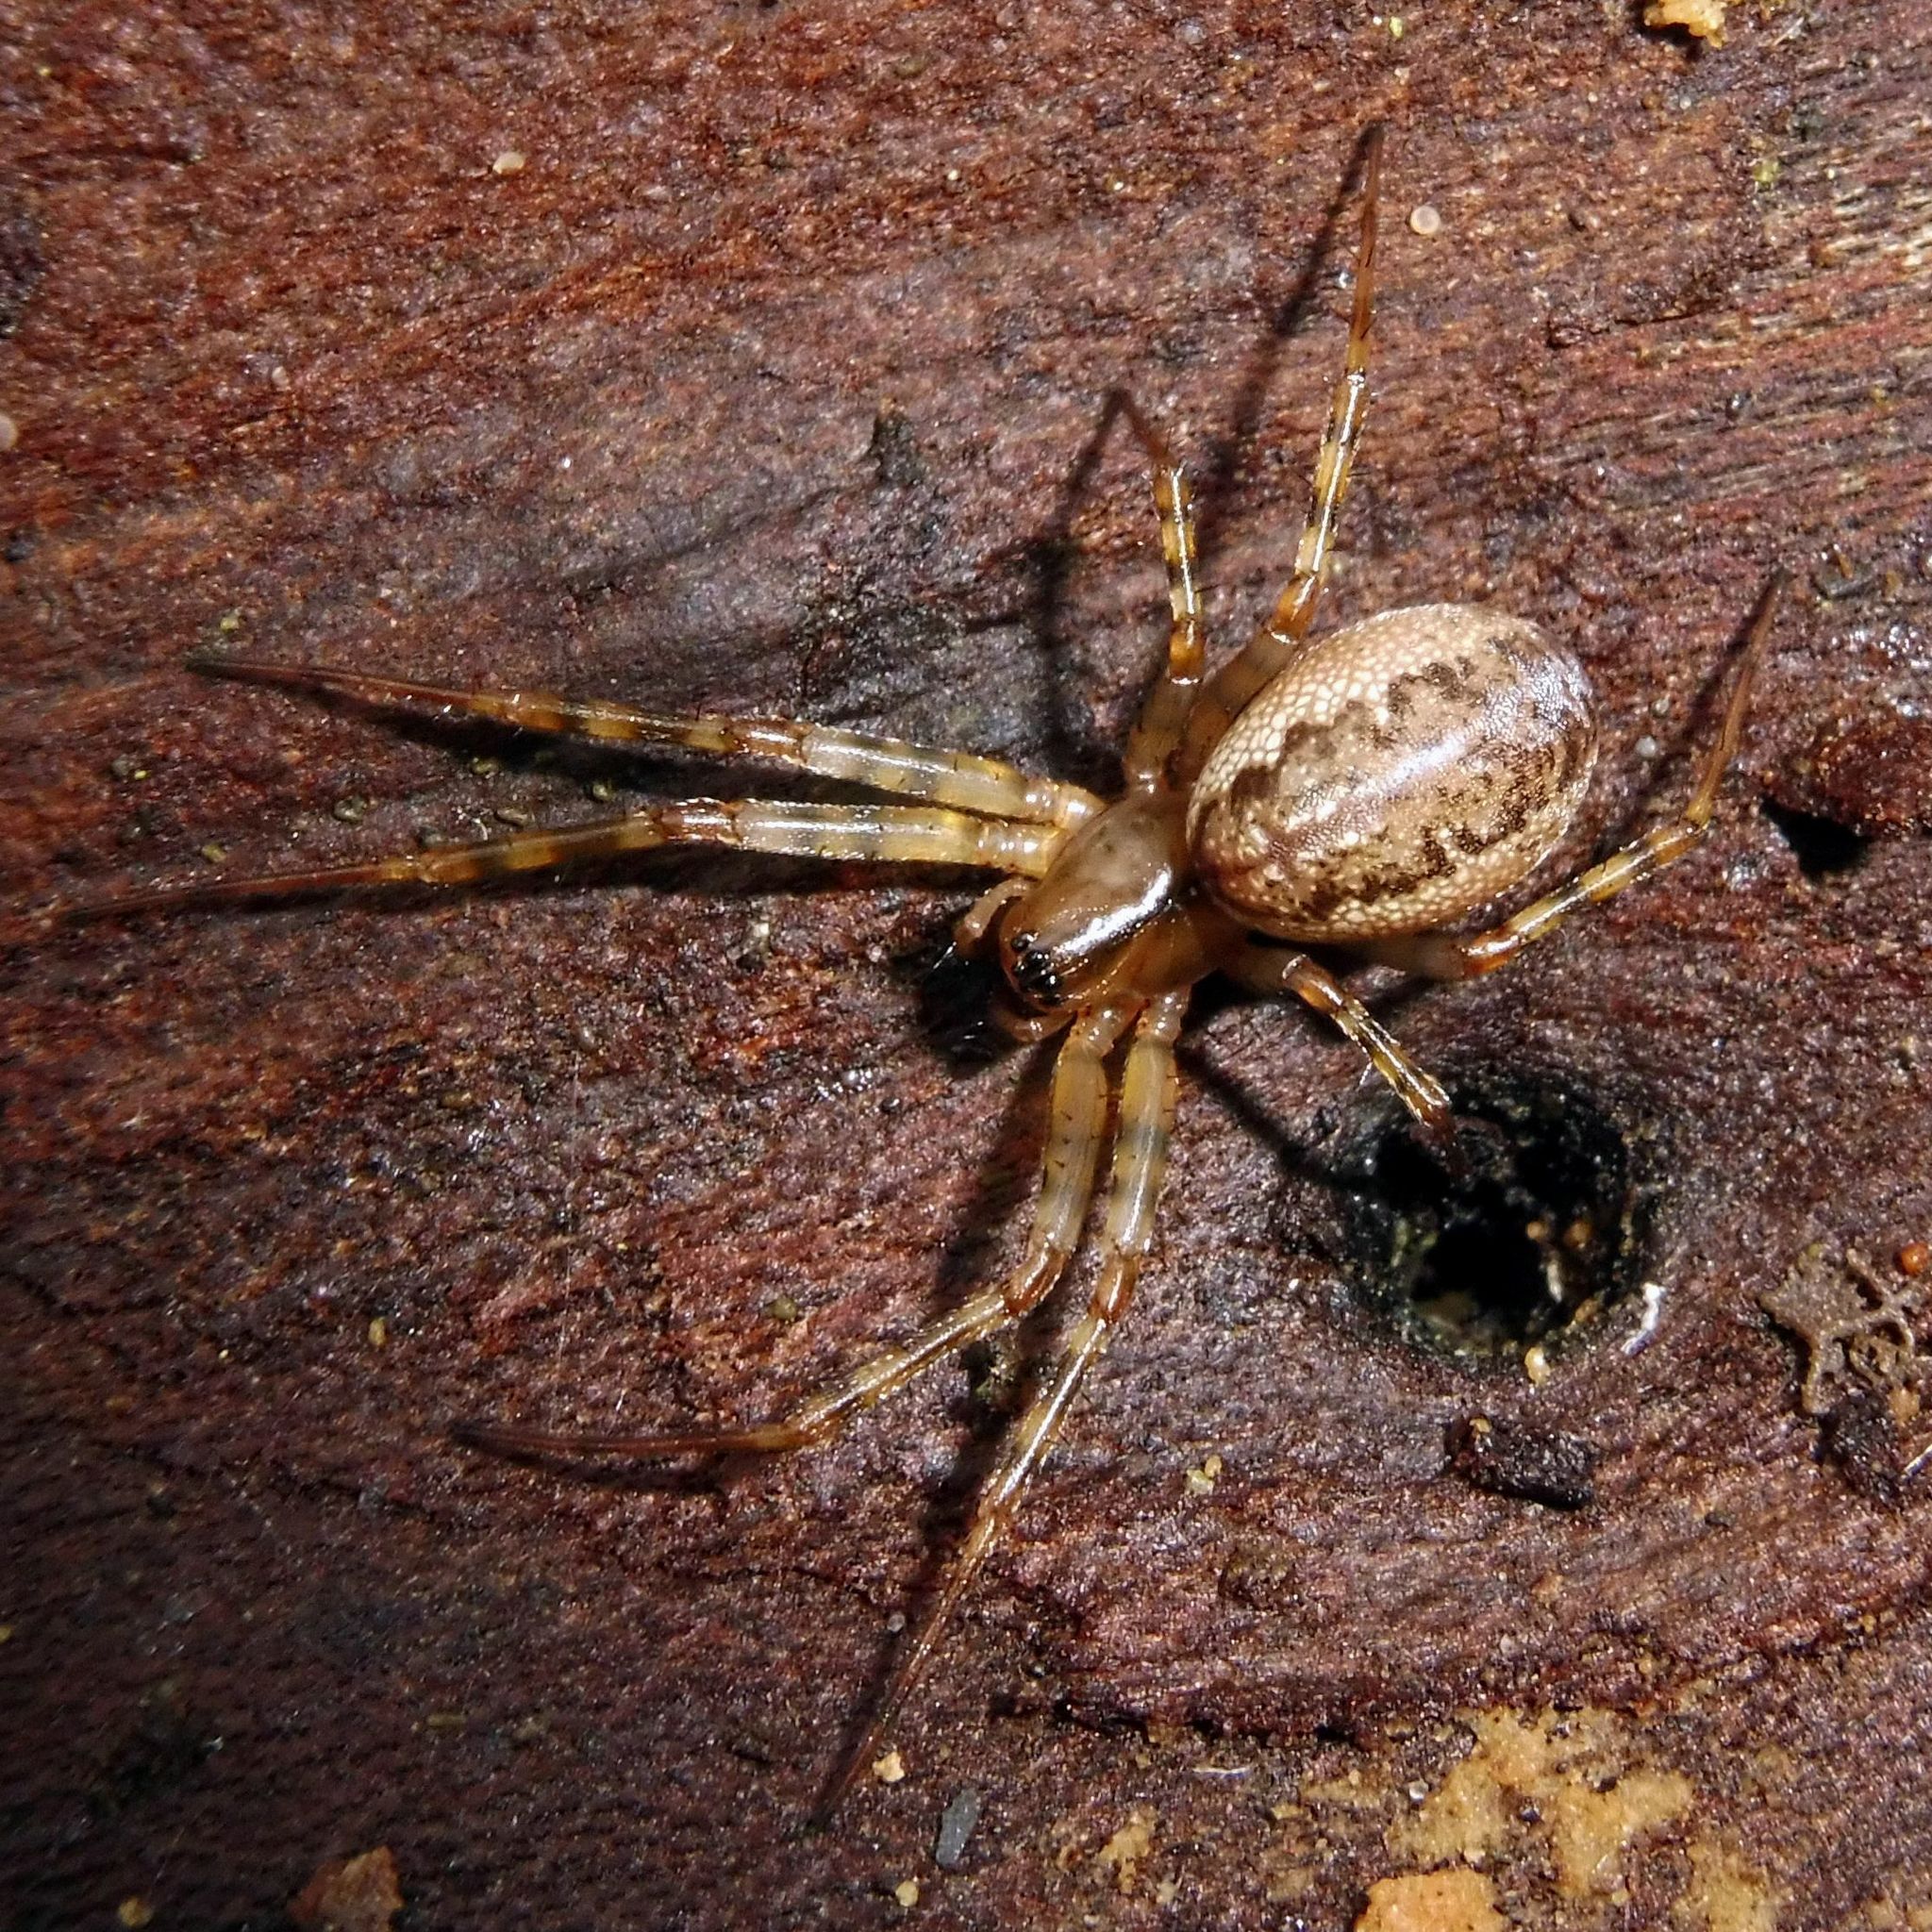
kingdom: Animalia
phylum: Arthropoda
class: Arachnida
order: Araneae
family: Linyphiidae
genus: Neriene
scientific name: Neriene montana
